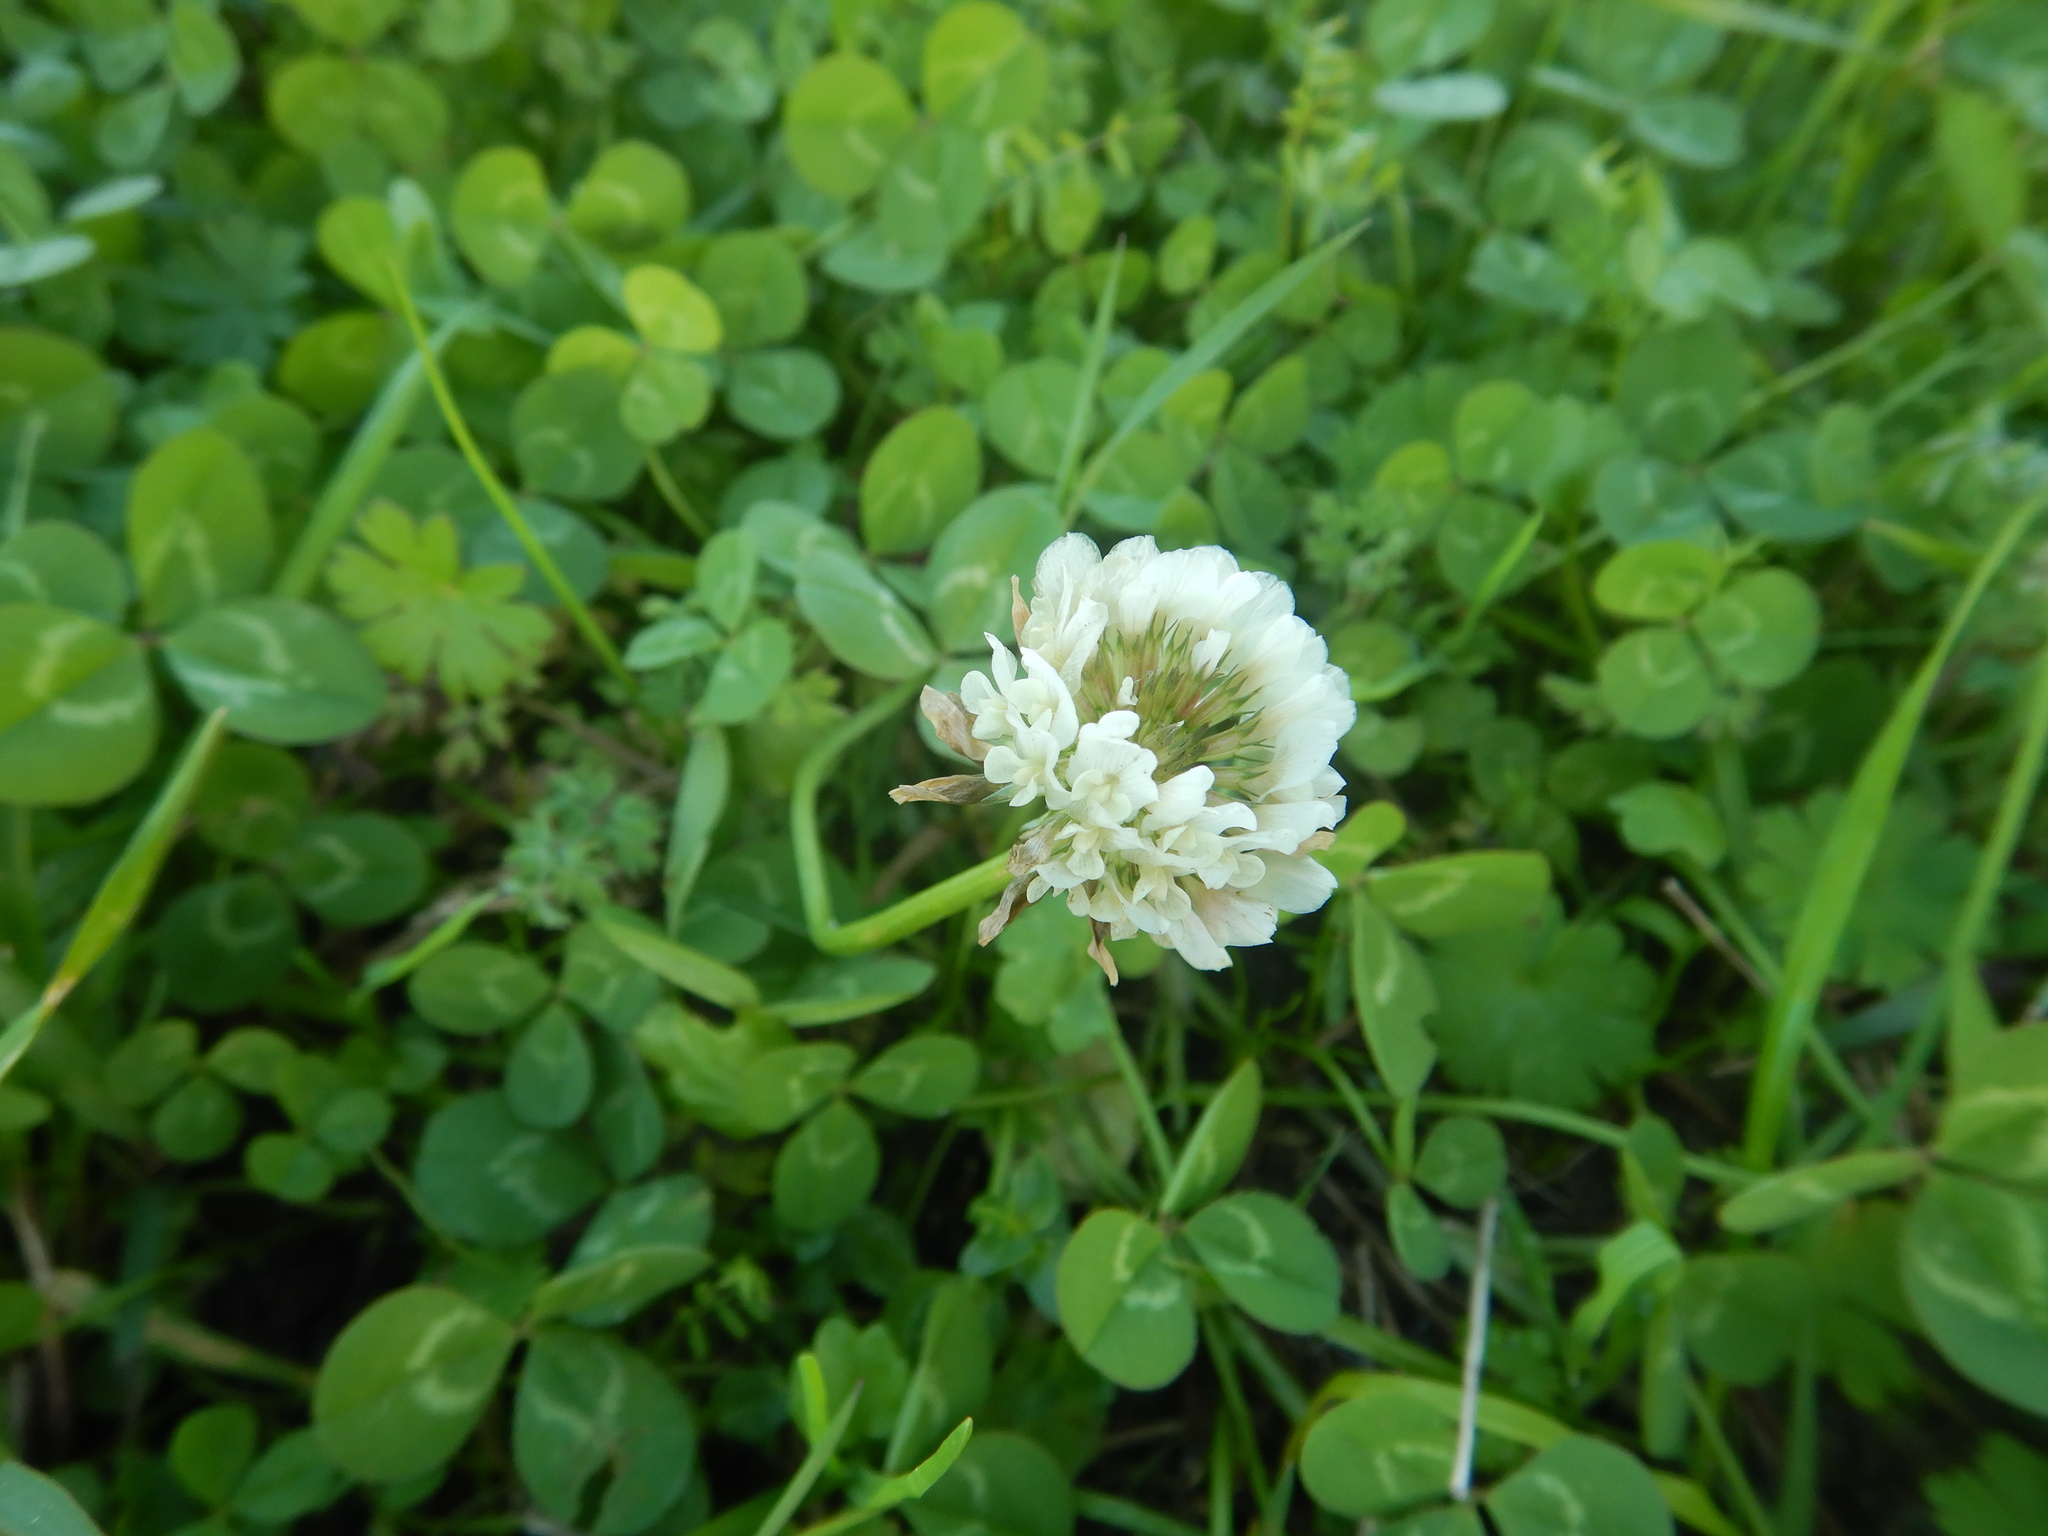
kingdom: Plantae
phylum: Tracheophyta
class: Magnoliopsida
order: Fabales
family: Fabaceae
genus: Trifolium
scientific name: Trifolium repens
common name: White clover
